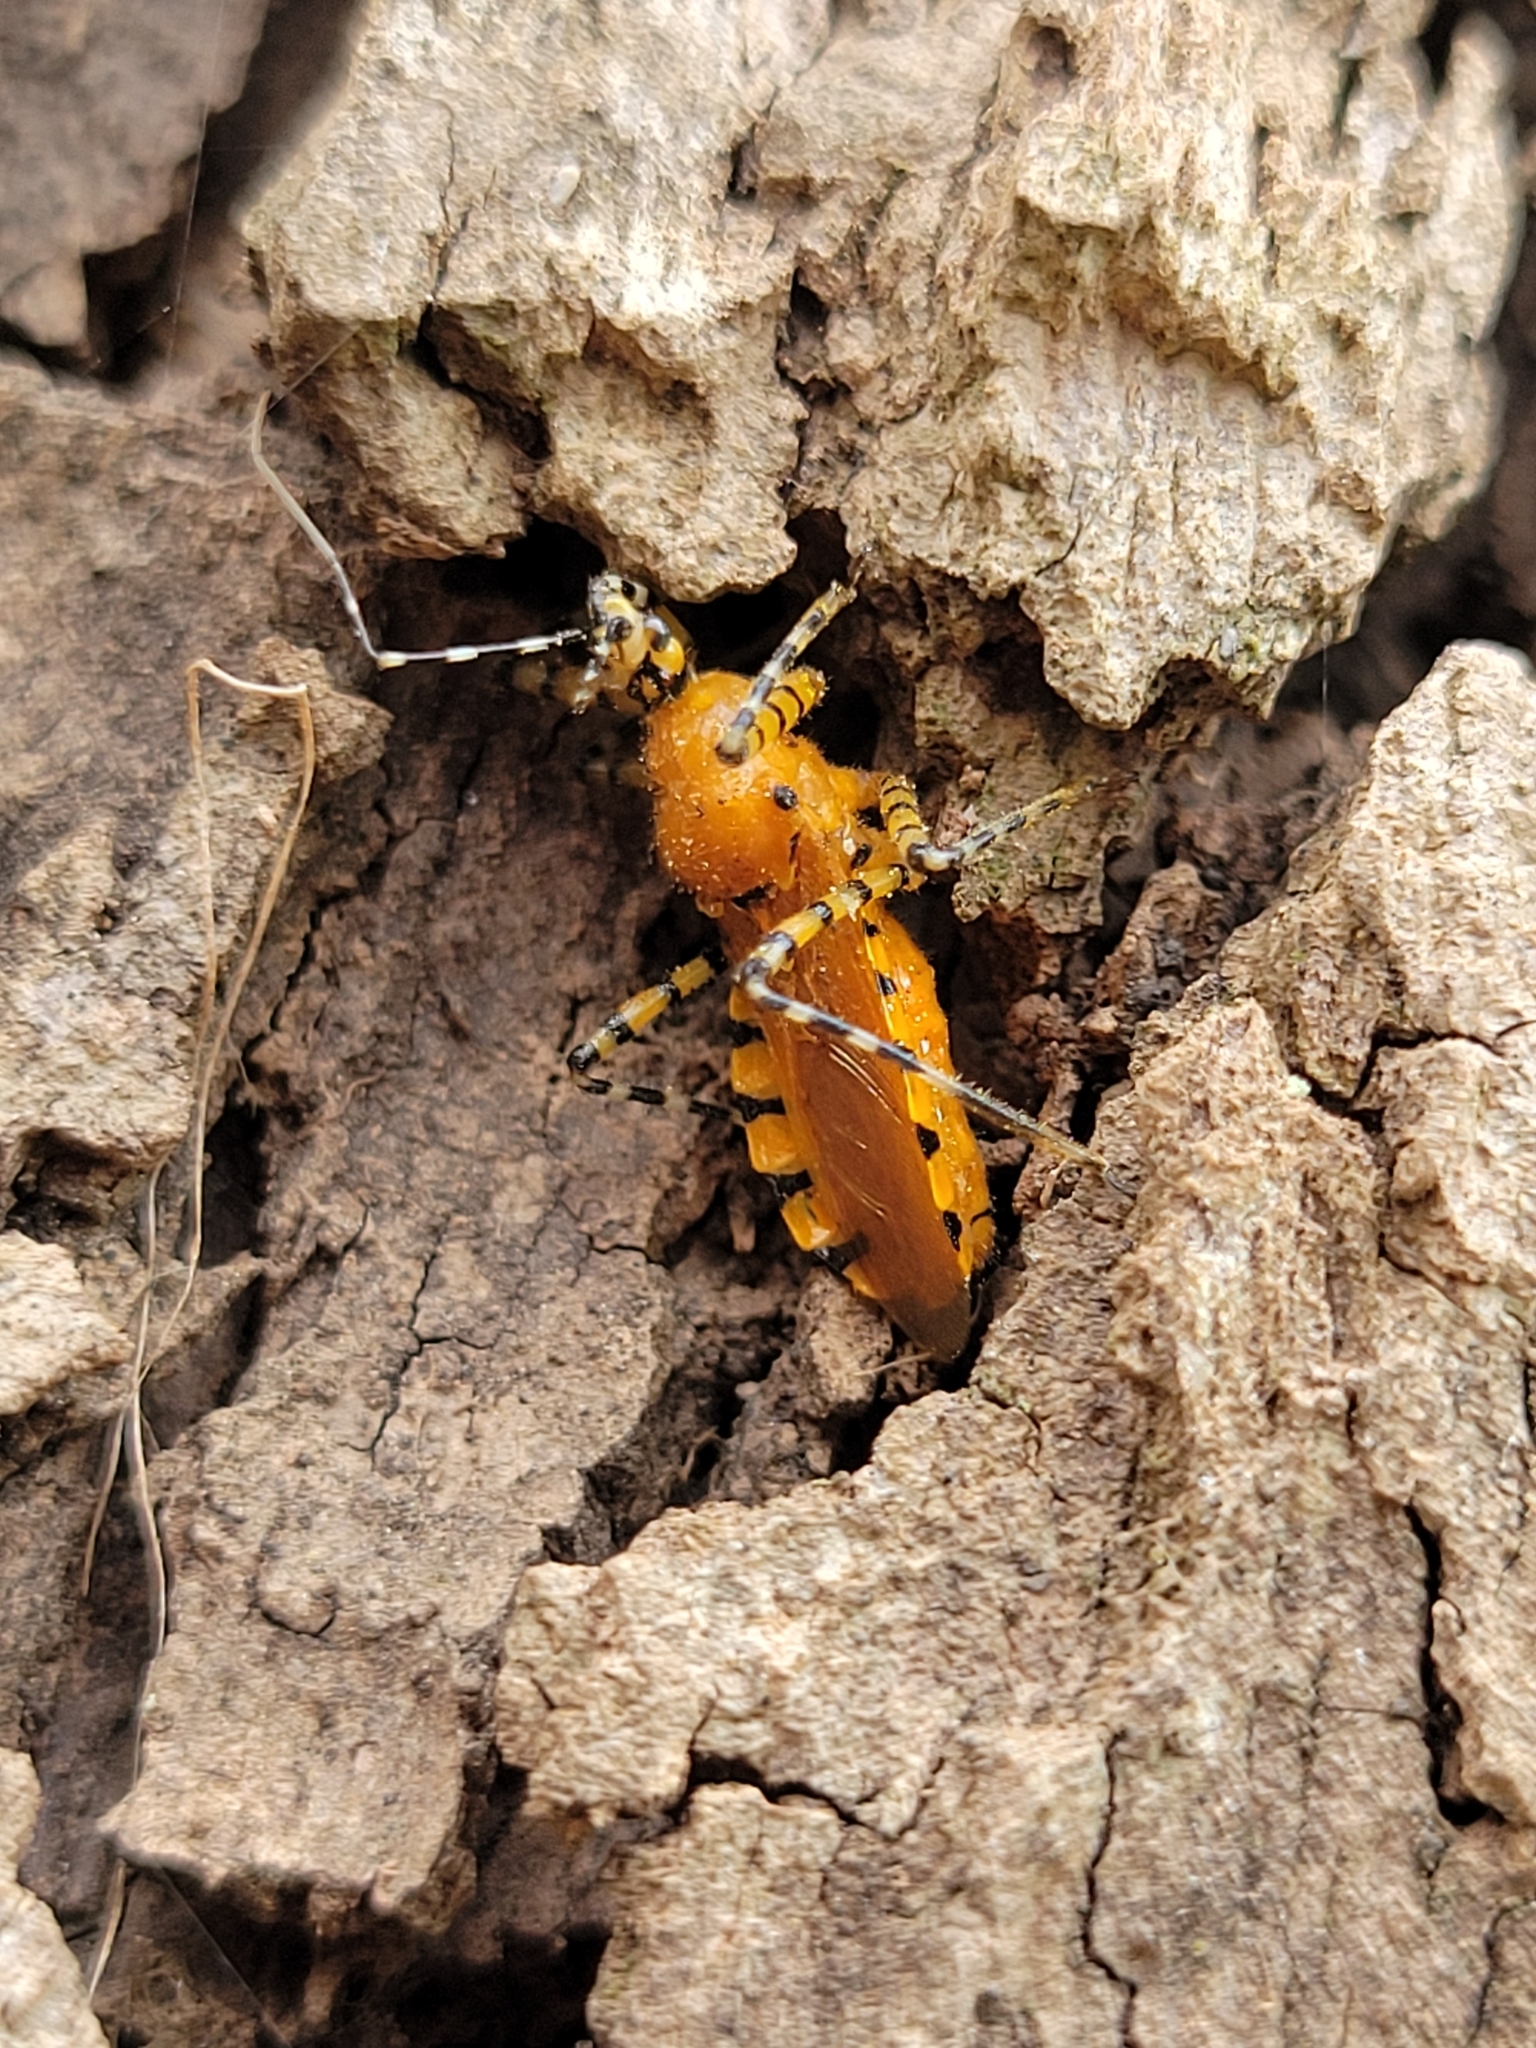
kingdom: Animalia
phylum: Arthropoda
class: Insecta
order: Hemiptera
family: Reduviidae
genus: Pselliopus
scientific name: Pselliopus barberi
